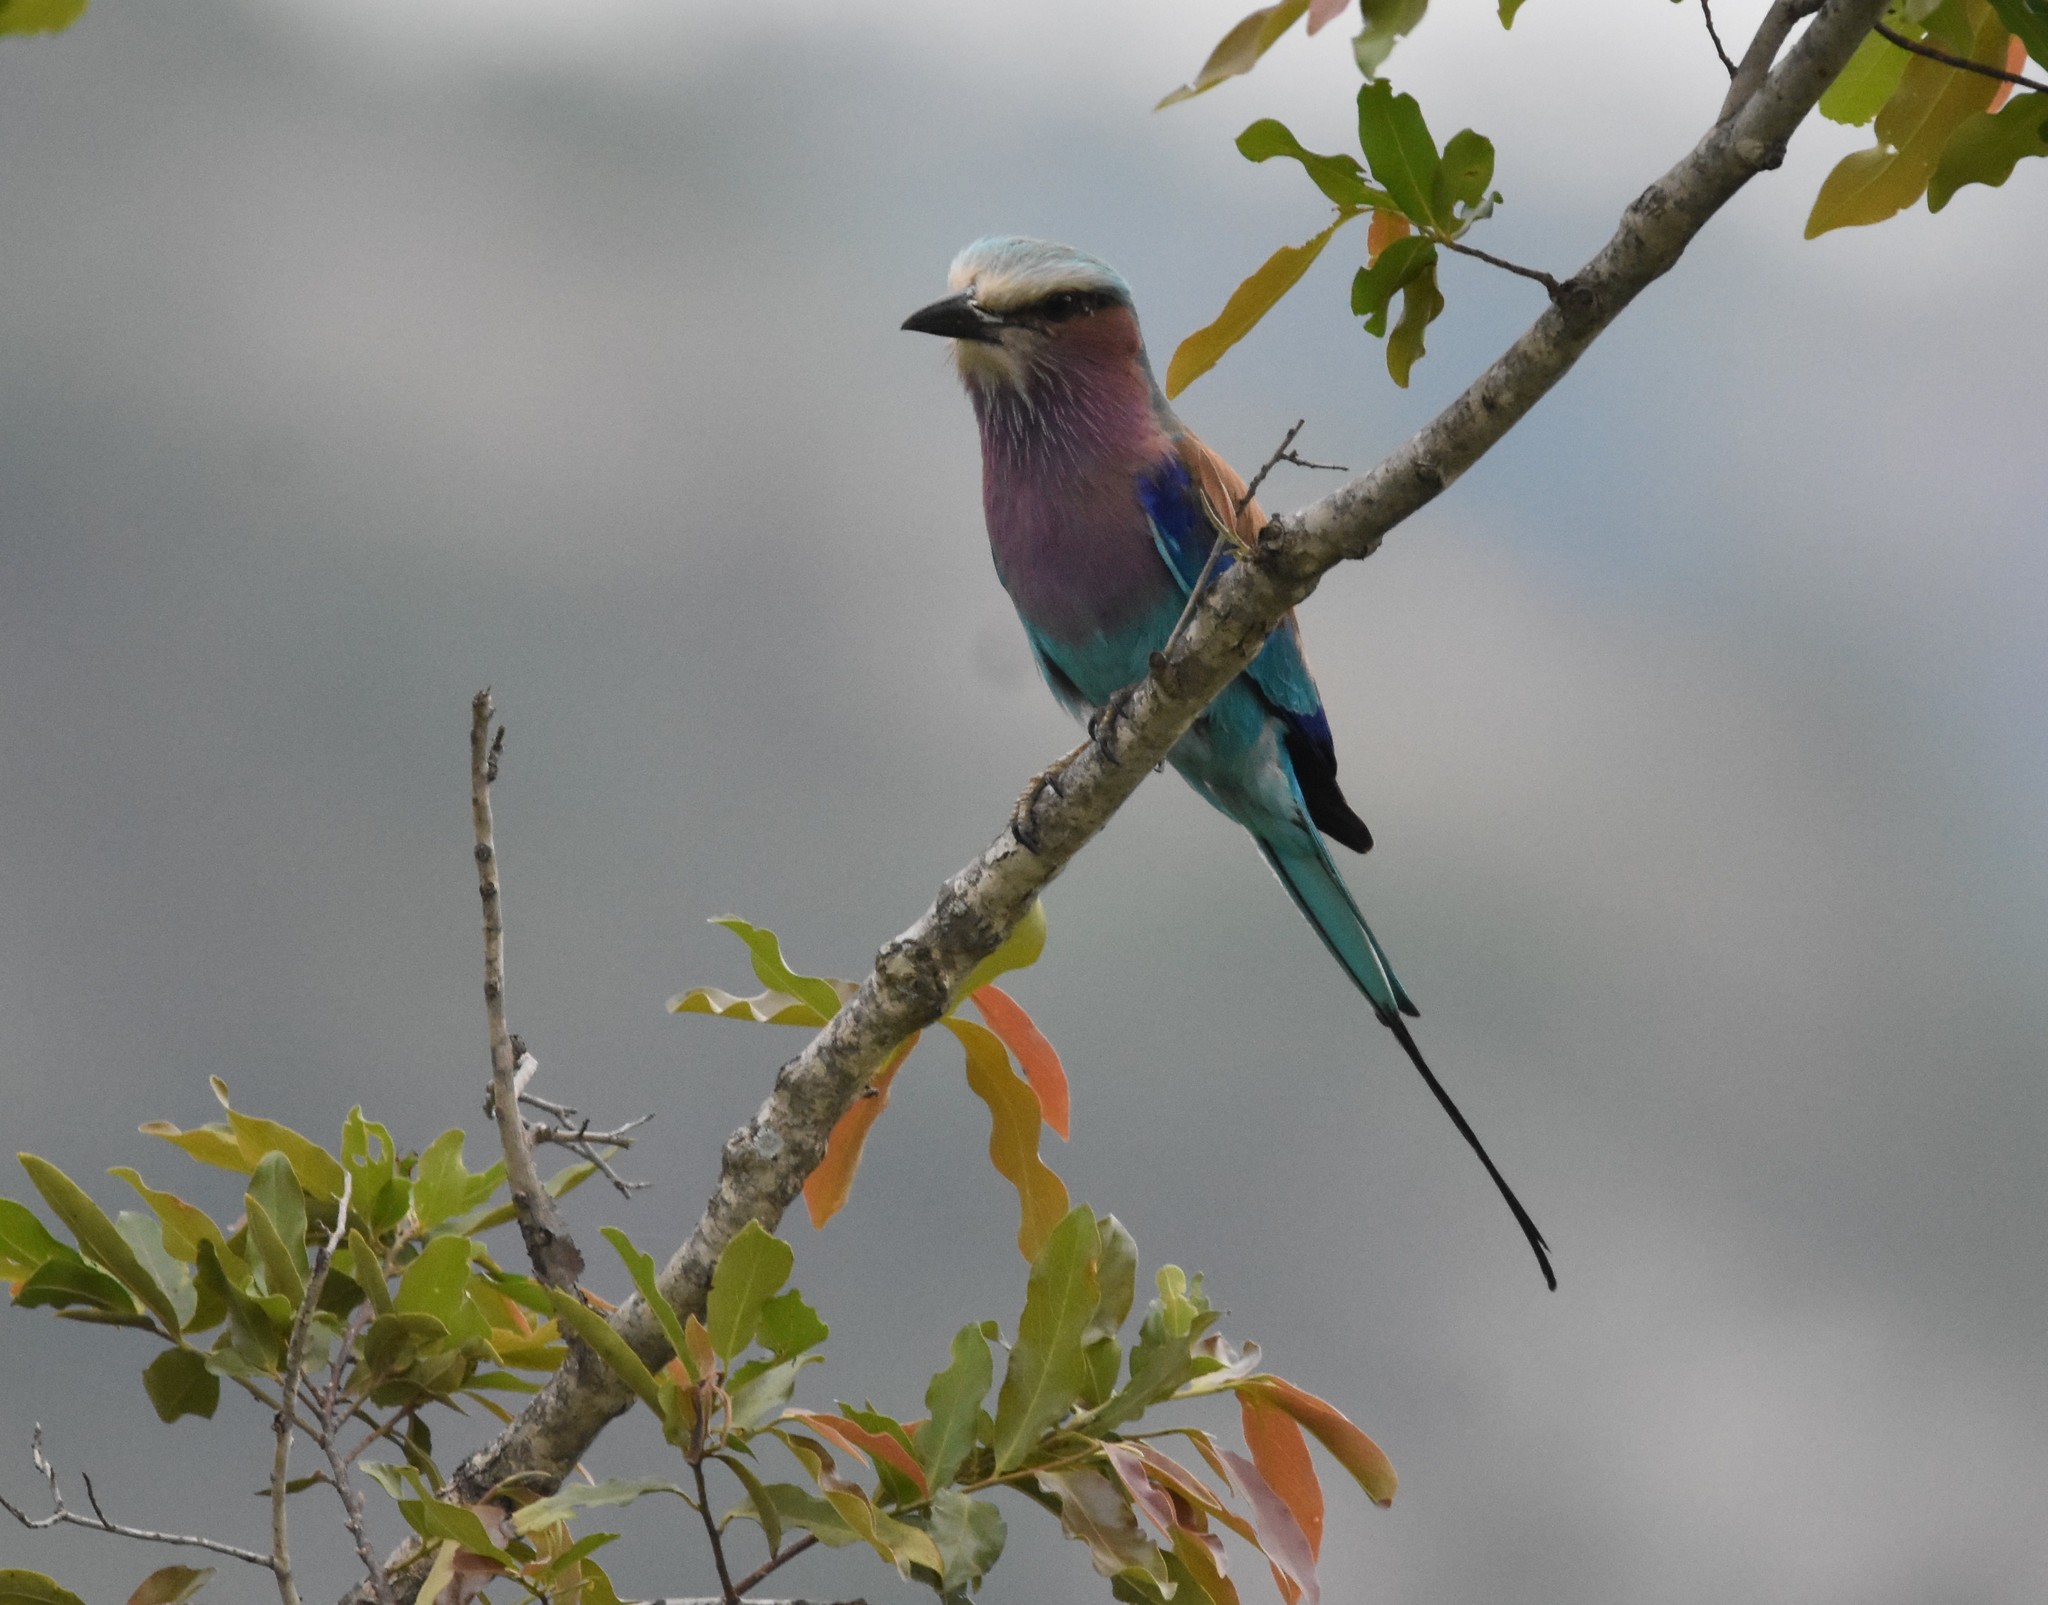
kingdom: Animalia
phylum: Chordata
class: Aves
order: Coraciiformes
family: Coraciidae
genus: Coracias
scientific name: Coracias caudatus
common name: Lilac-breasted roller
